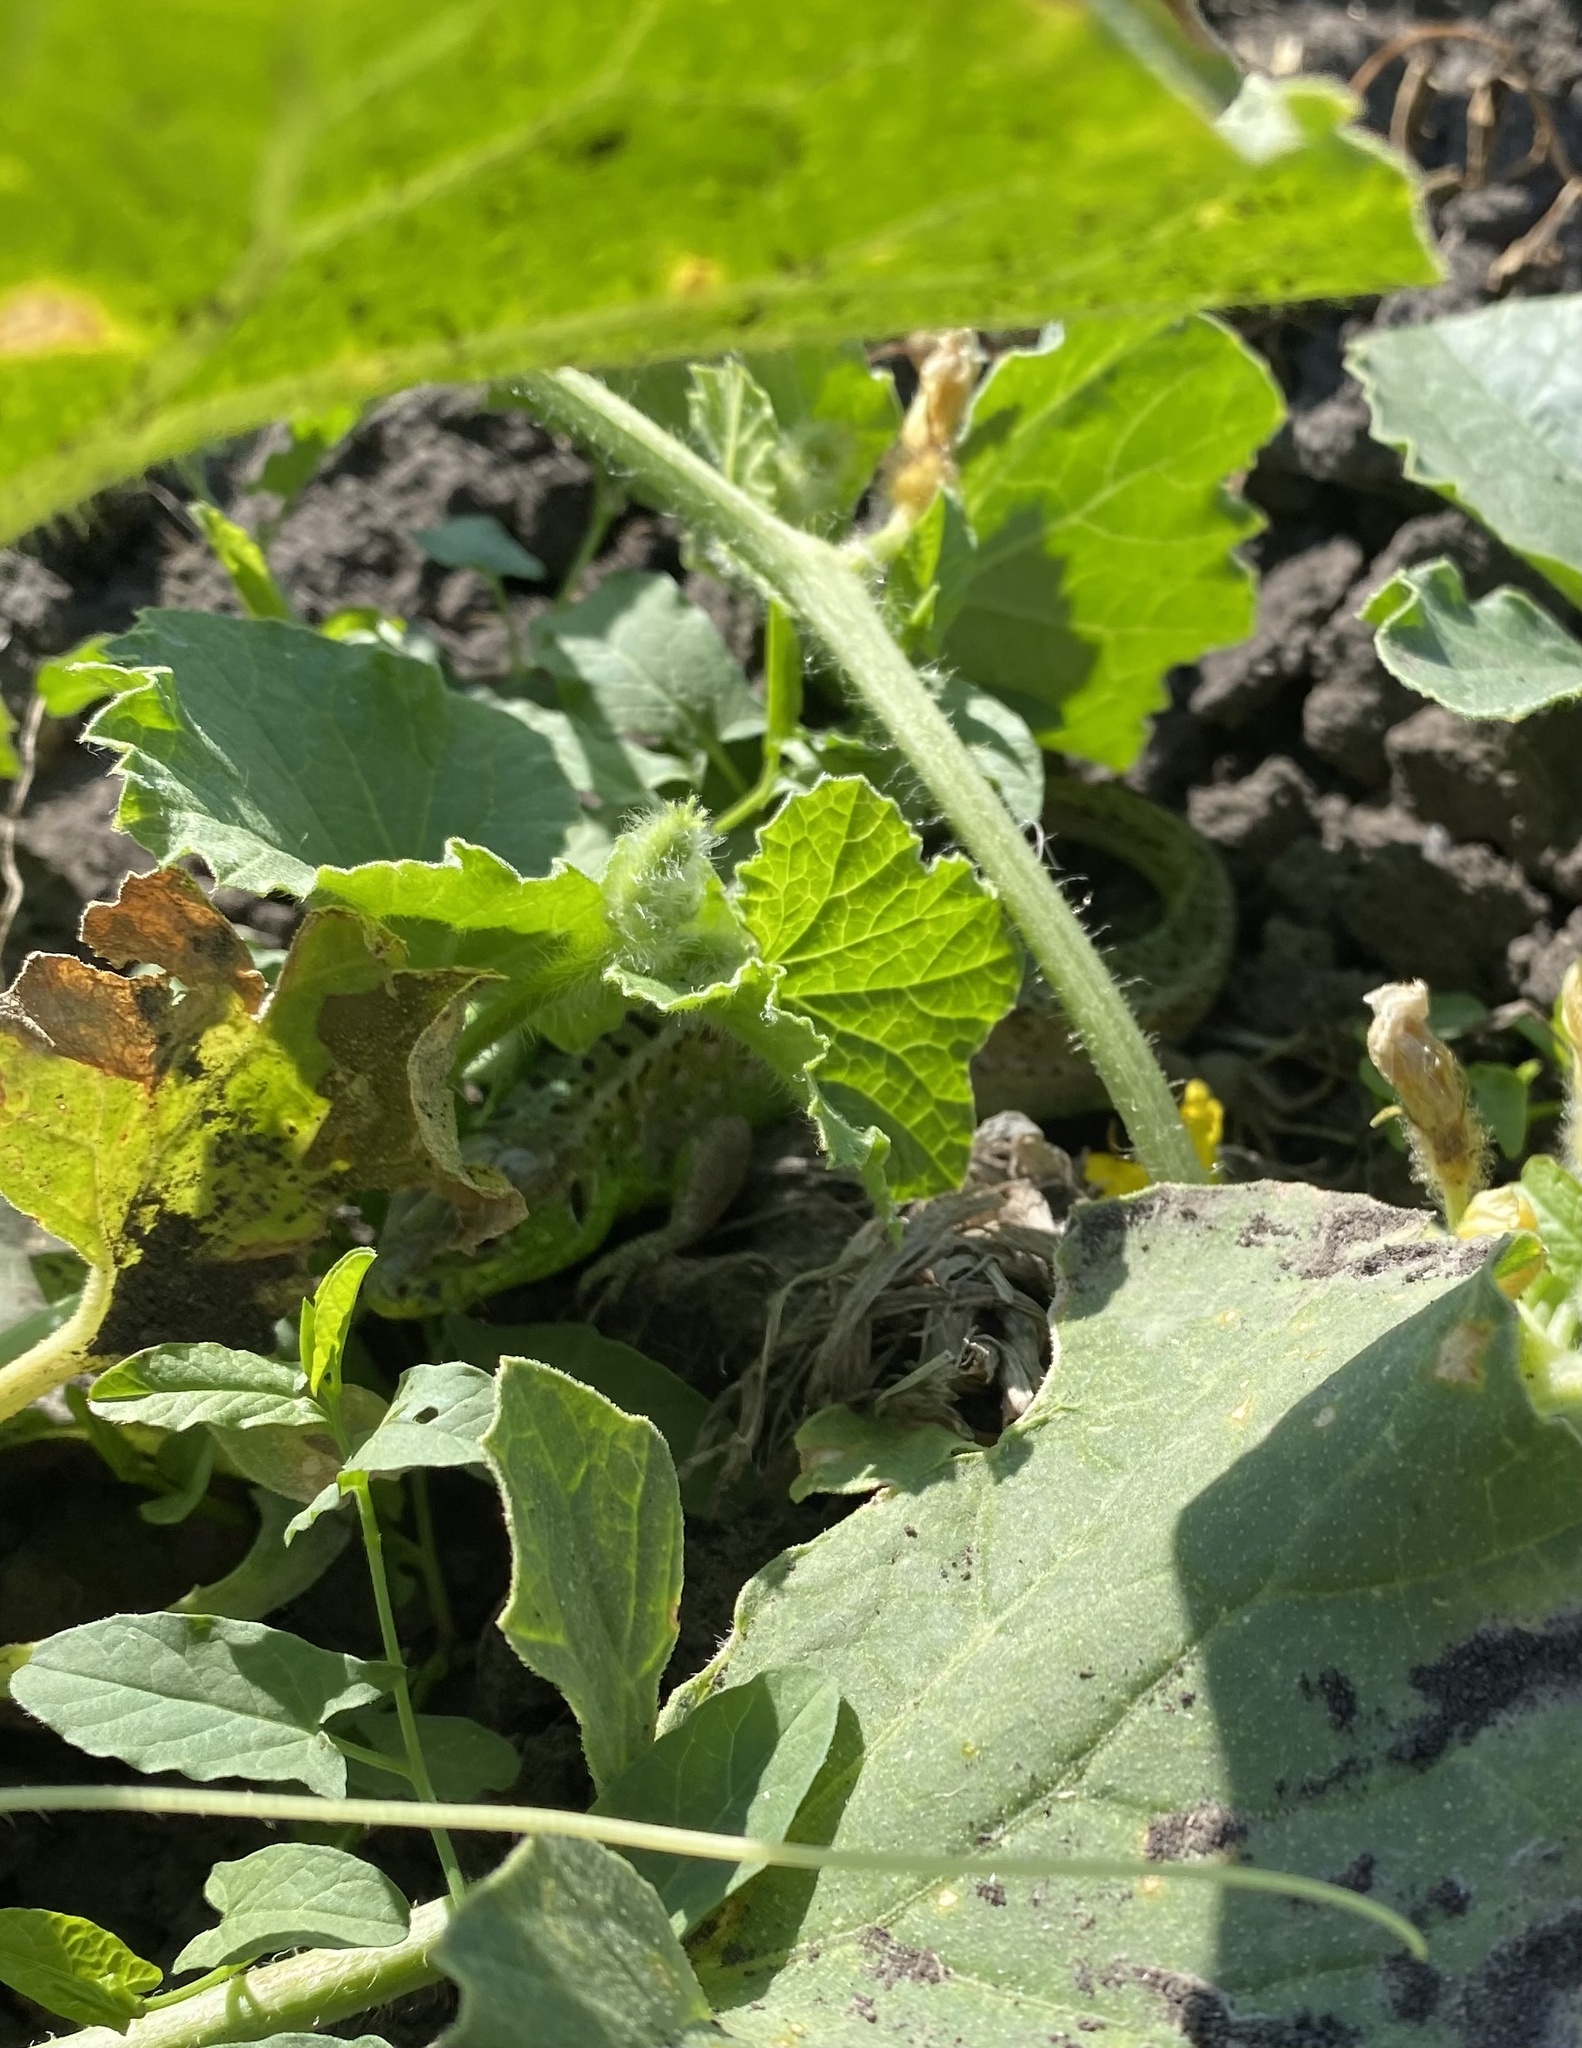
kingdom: Animalia
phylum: Chordata
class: Squamata
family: Lacertidae
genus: Lacerta
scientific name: Lacerta agilis
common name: Sand lizard
